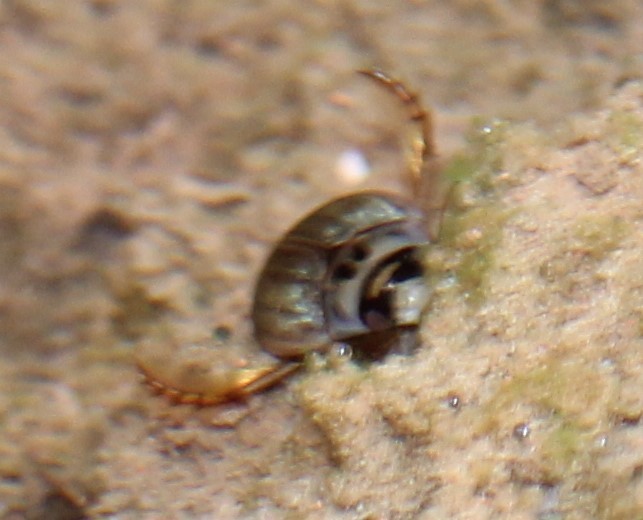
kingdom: Animalia
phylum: Arthropoda
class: Insecta
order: Coleoptera
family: Dytiscidae
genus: Rhantus
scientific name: Rhantus gutticollis
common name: Predaceous diving beetle
